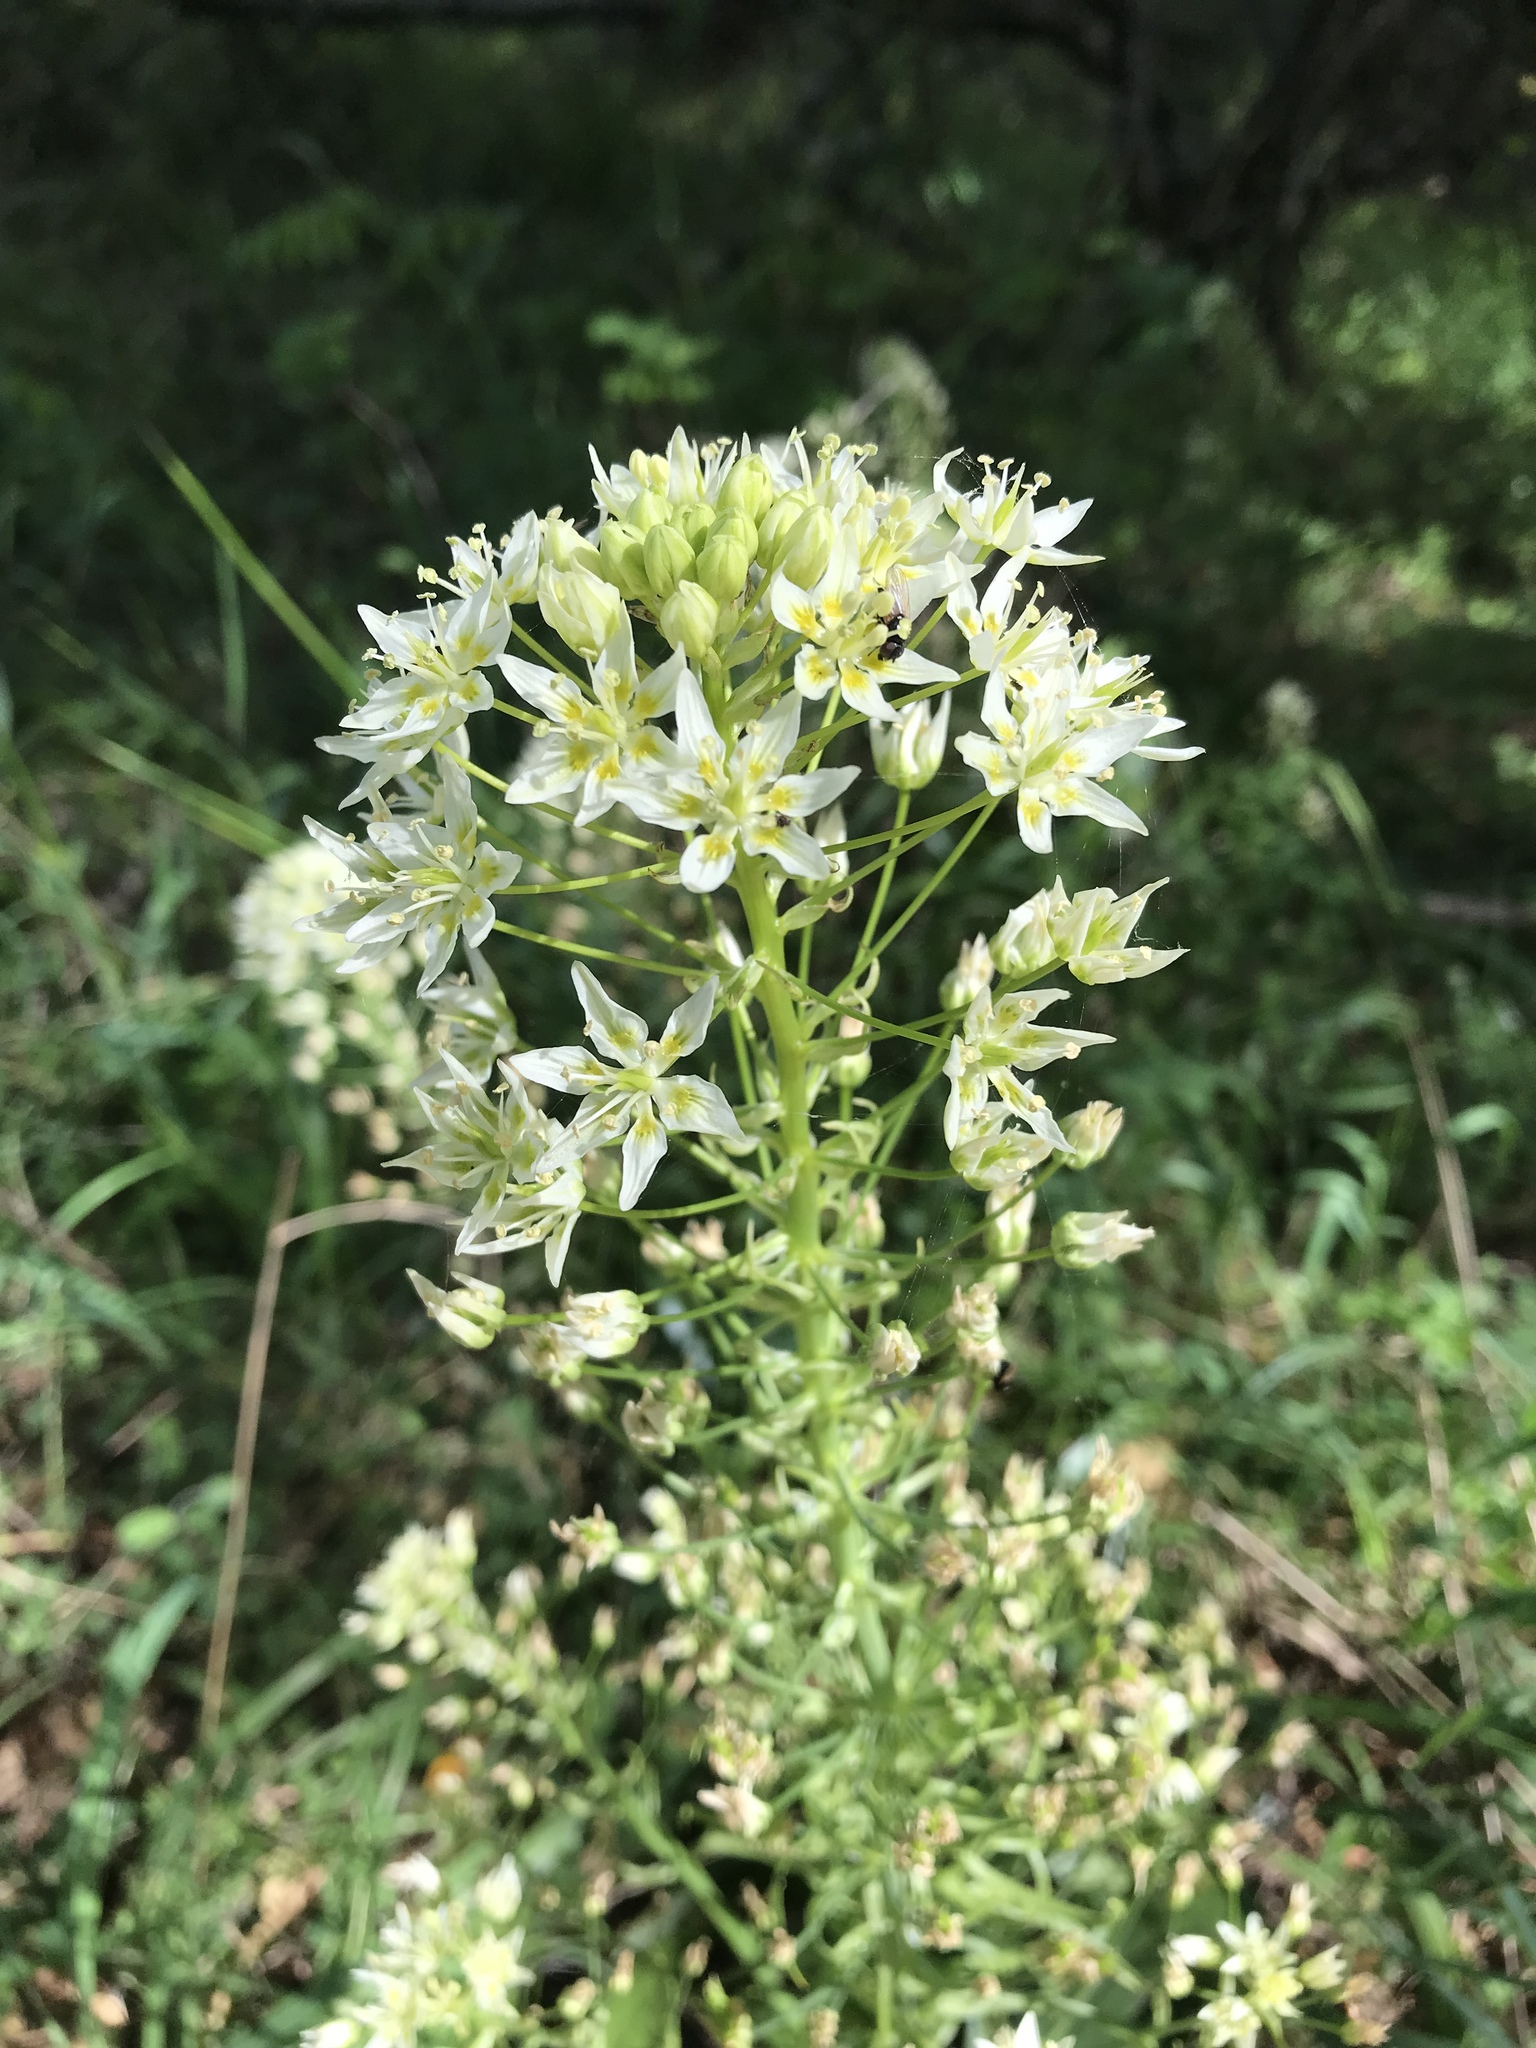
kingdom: Plantae
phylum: Tracheophyta
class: Liliopsida
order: Liliales
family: Melanthiaceae
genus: Toxicoscordion
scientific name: Toxicoscordion fremontii
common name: Fremont's death camas
